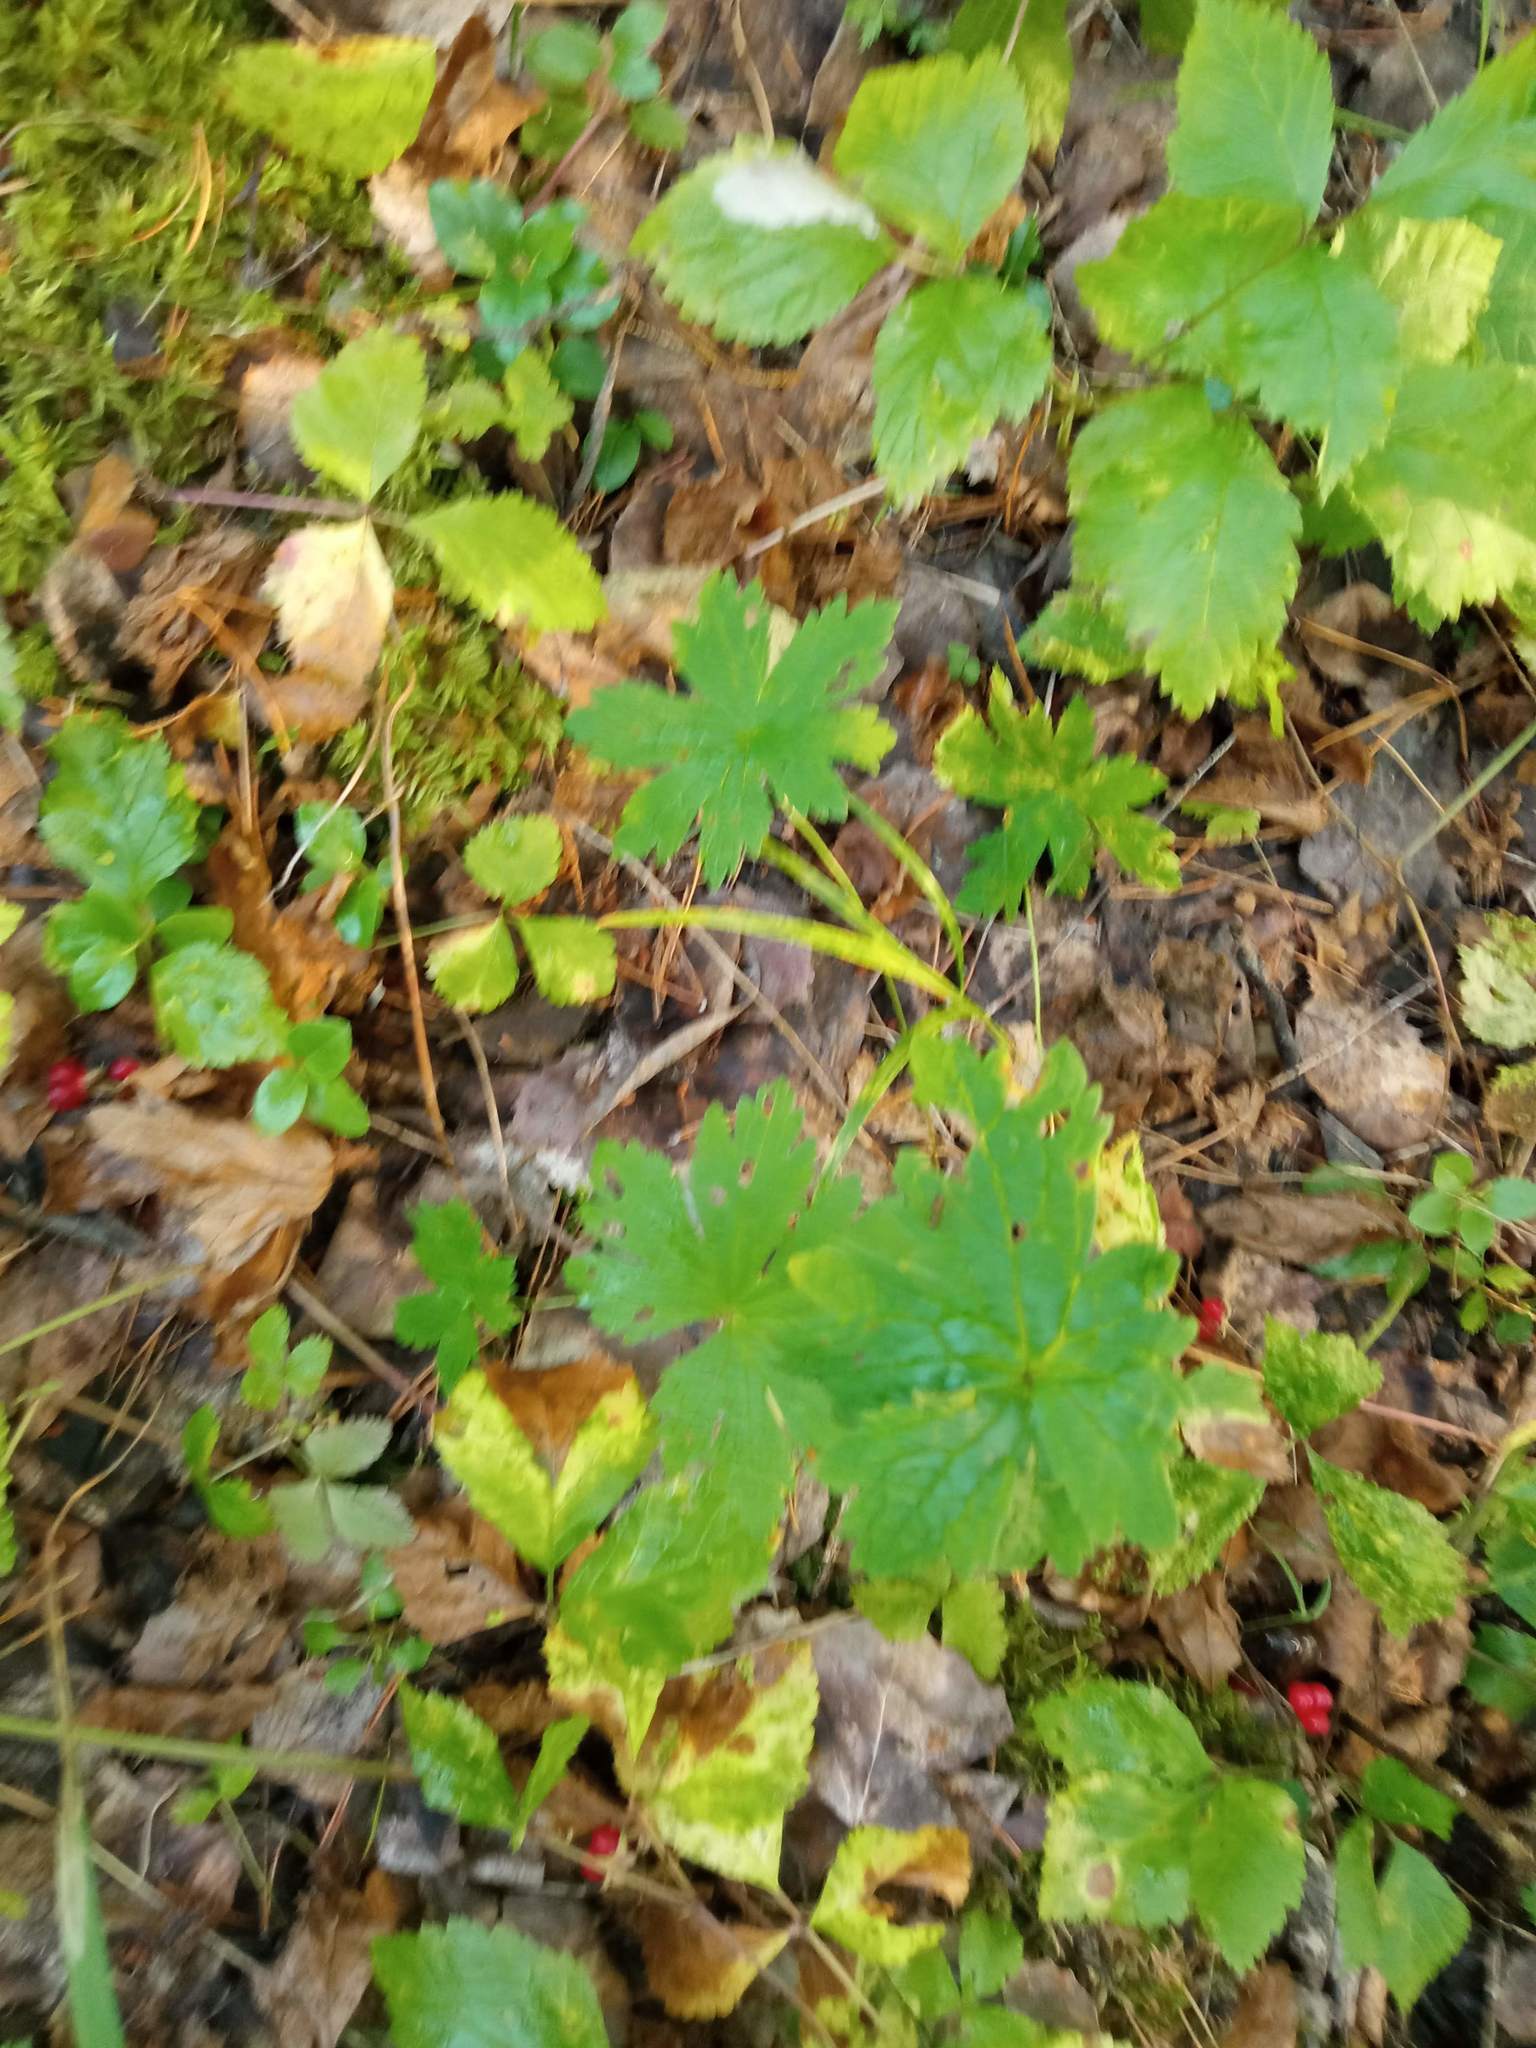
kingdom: Plantae
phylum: Tracheophyta
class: Magnoliopsida
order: Geraniales
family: Geraniaceae
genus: Geranium
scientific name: Geranium sylvaticum
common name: Wood crane's-bill
